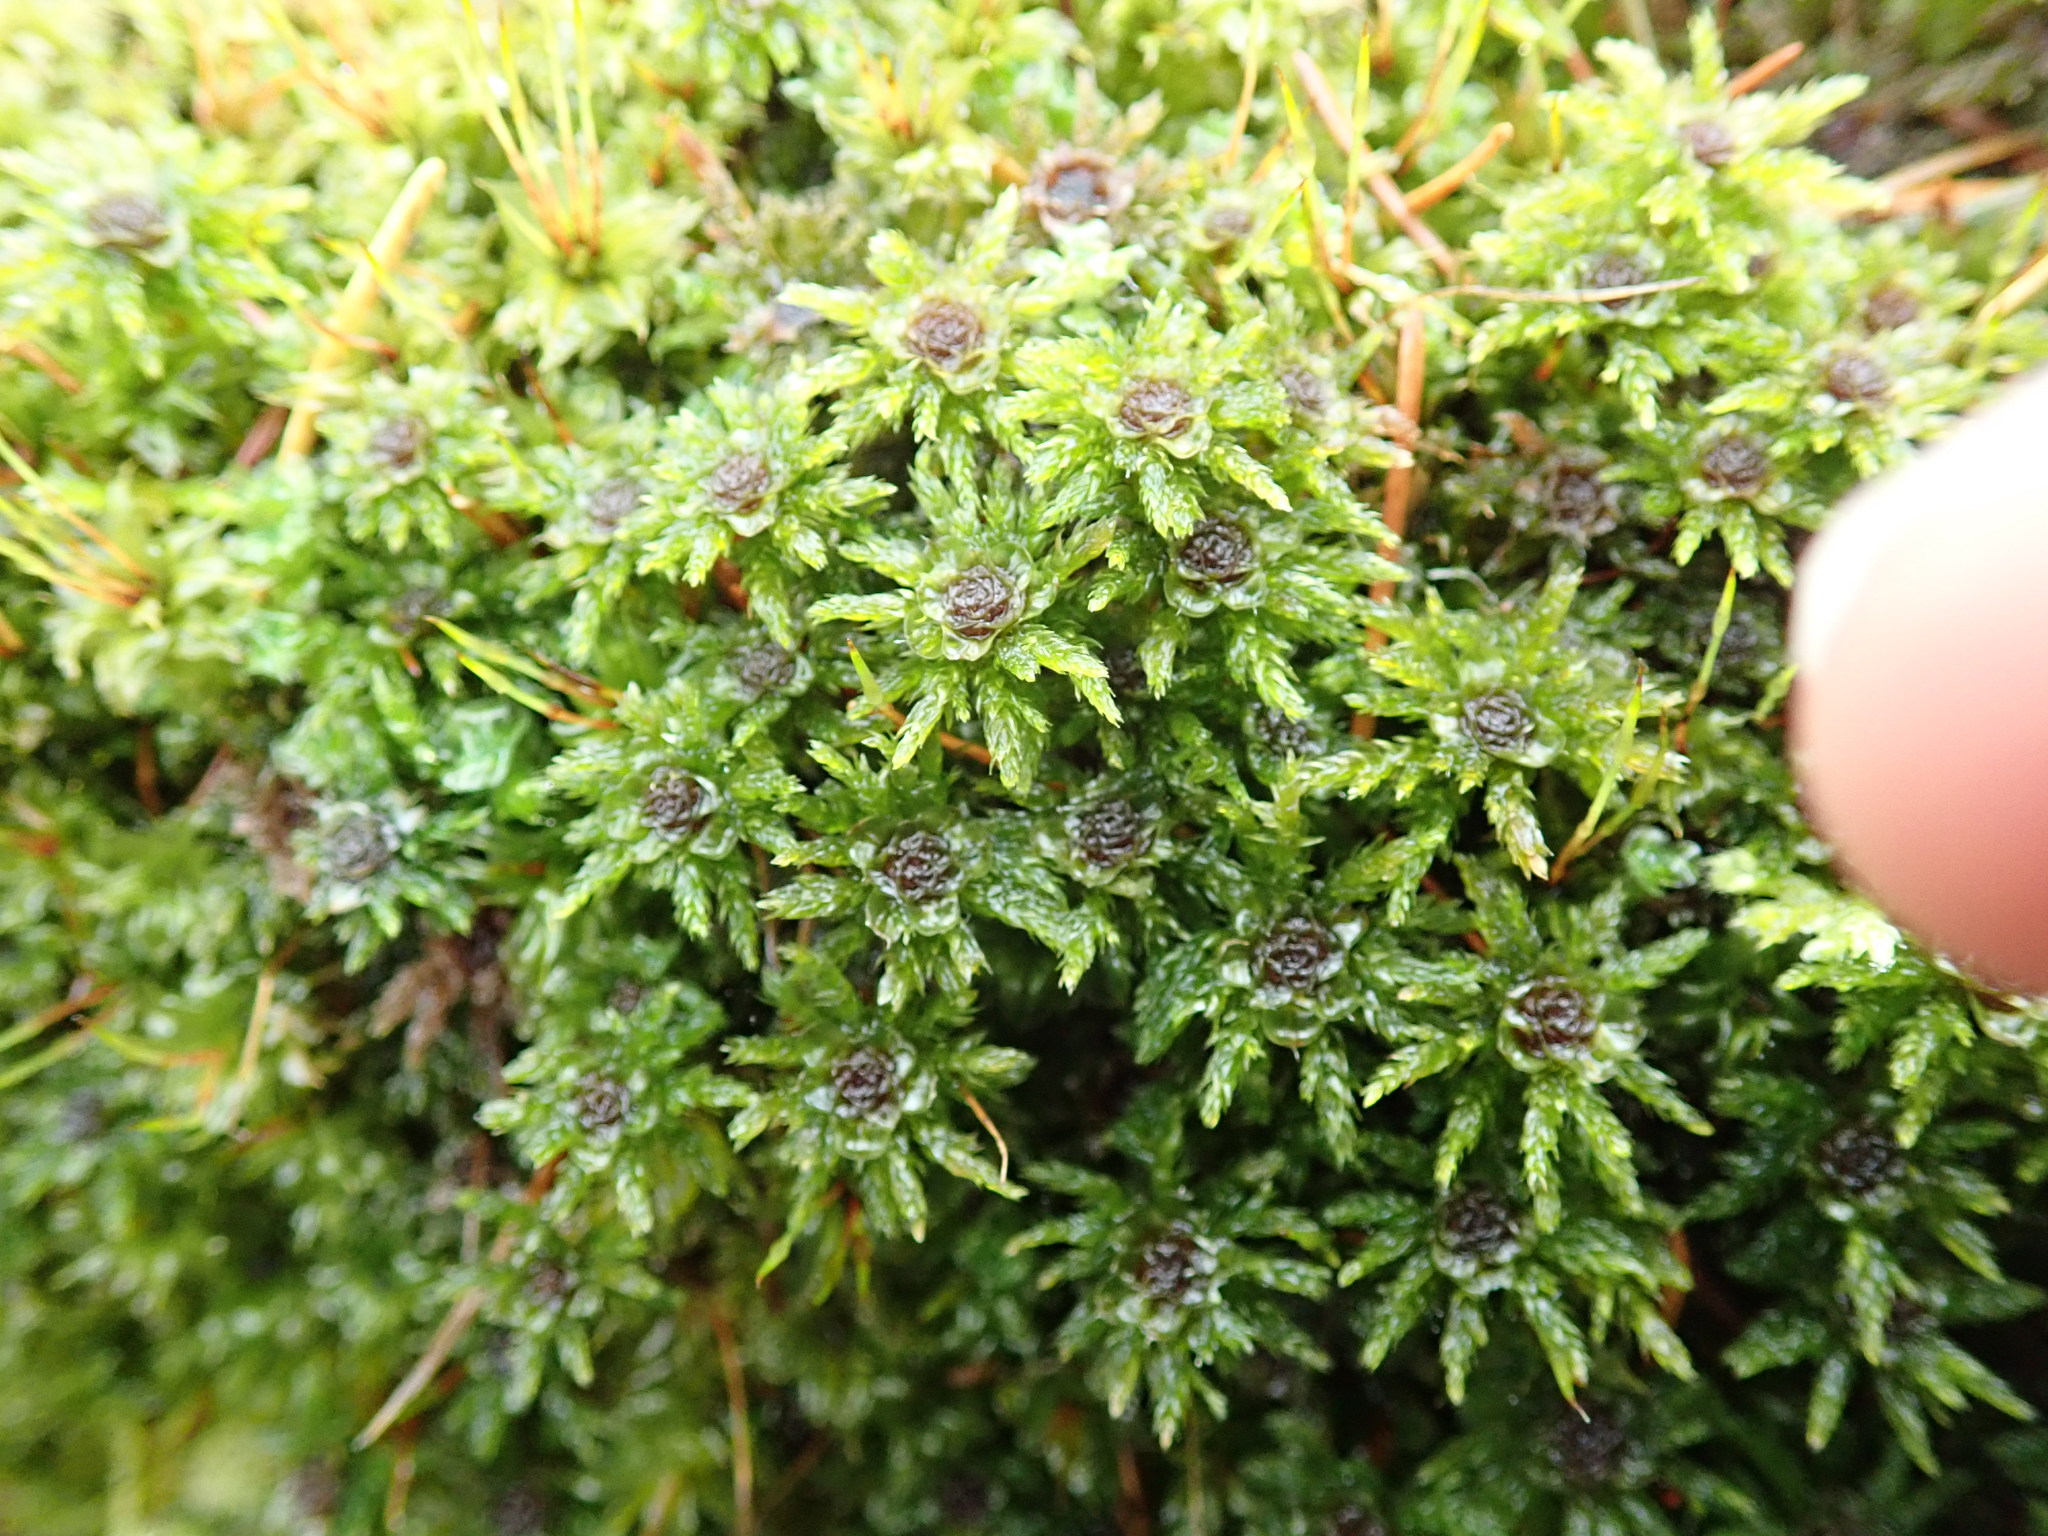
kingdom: Plantae
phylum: Bryophyta
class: Bryopsida
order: Bryales
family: Mniaceae
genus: Leucolepis
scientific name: Leucolepis acanthoneura
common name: Leucolepis umbrella moss
